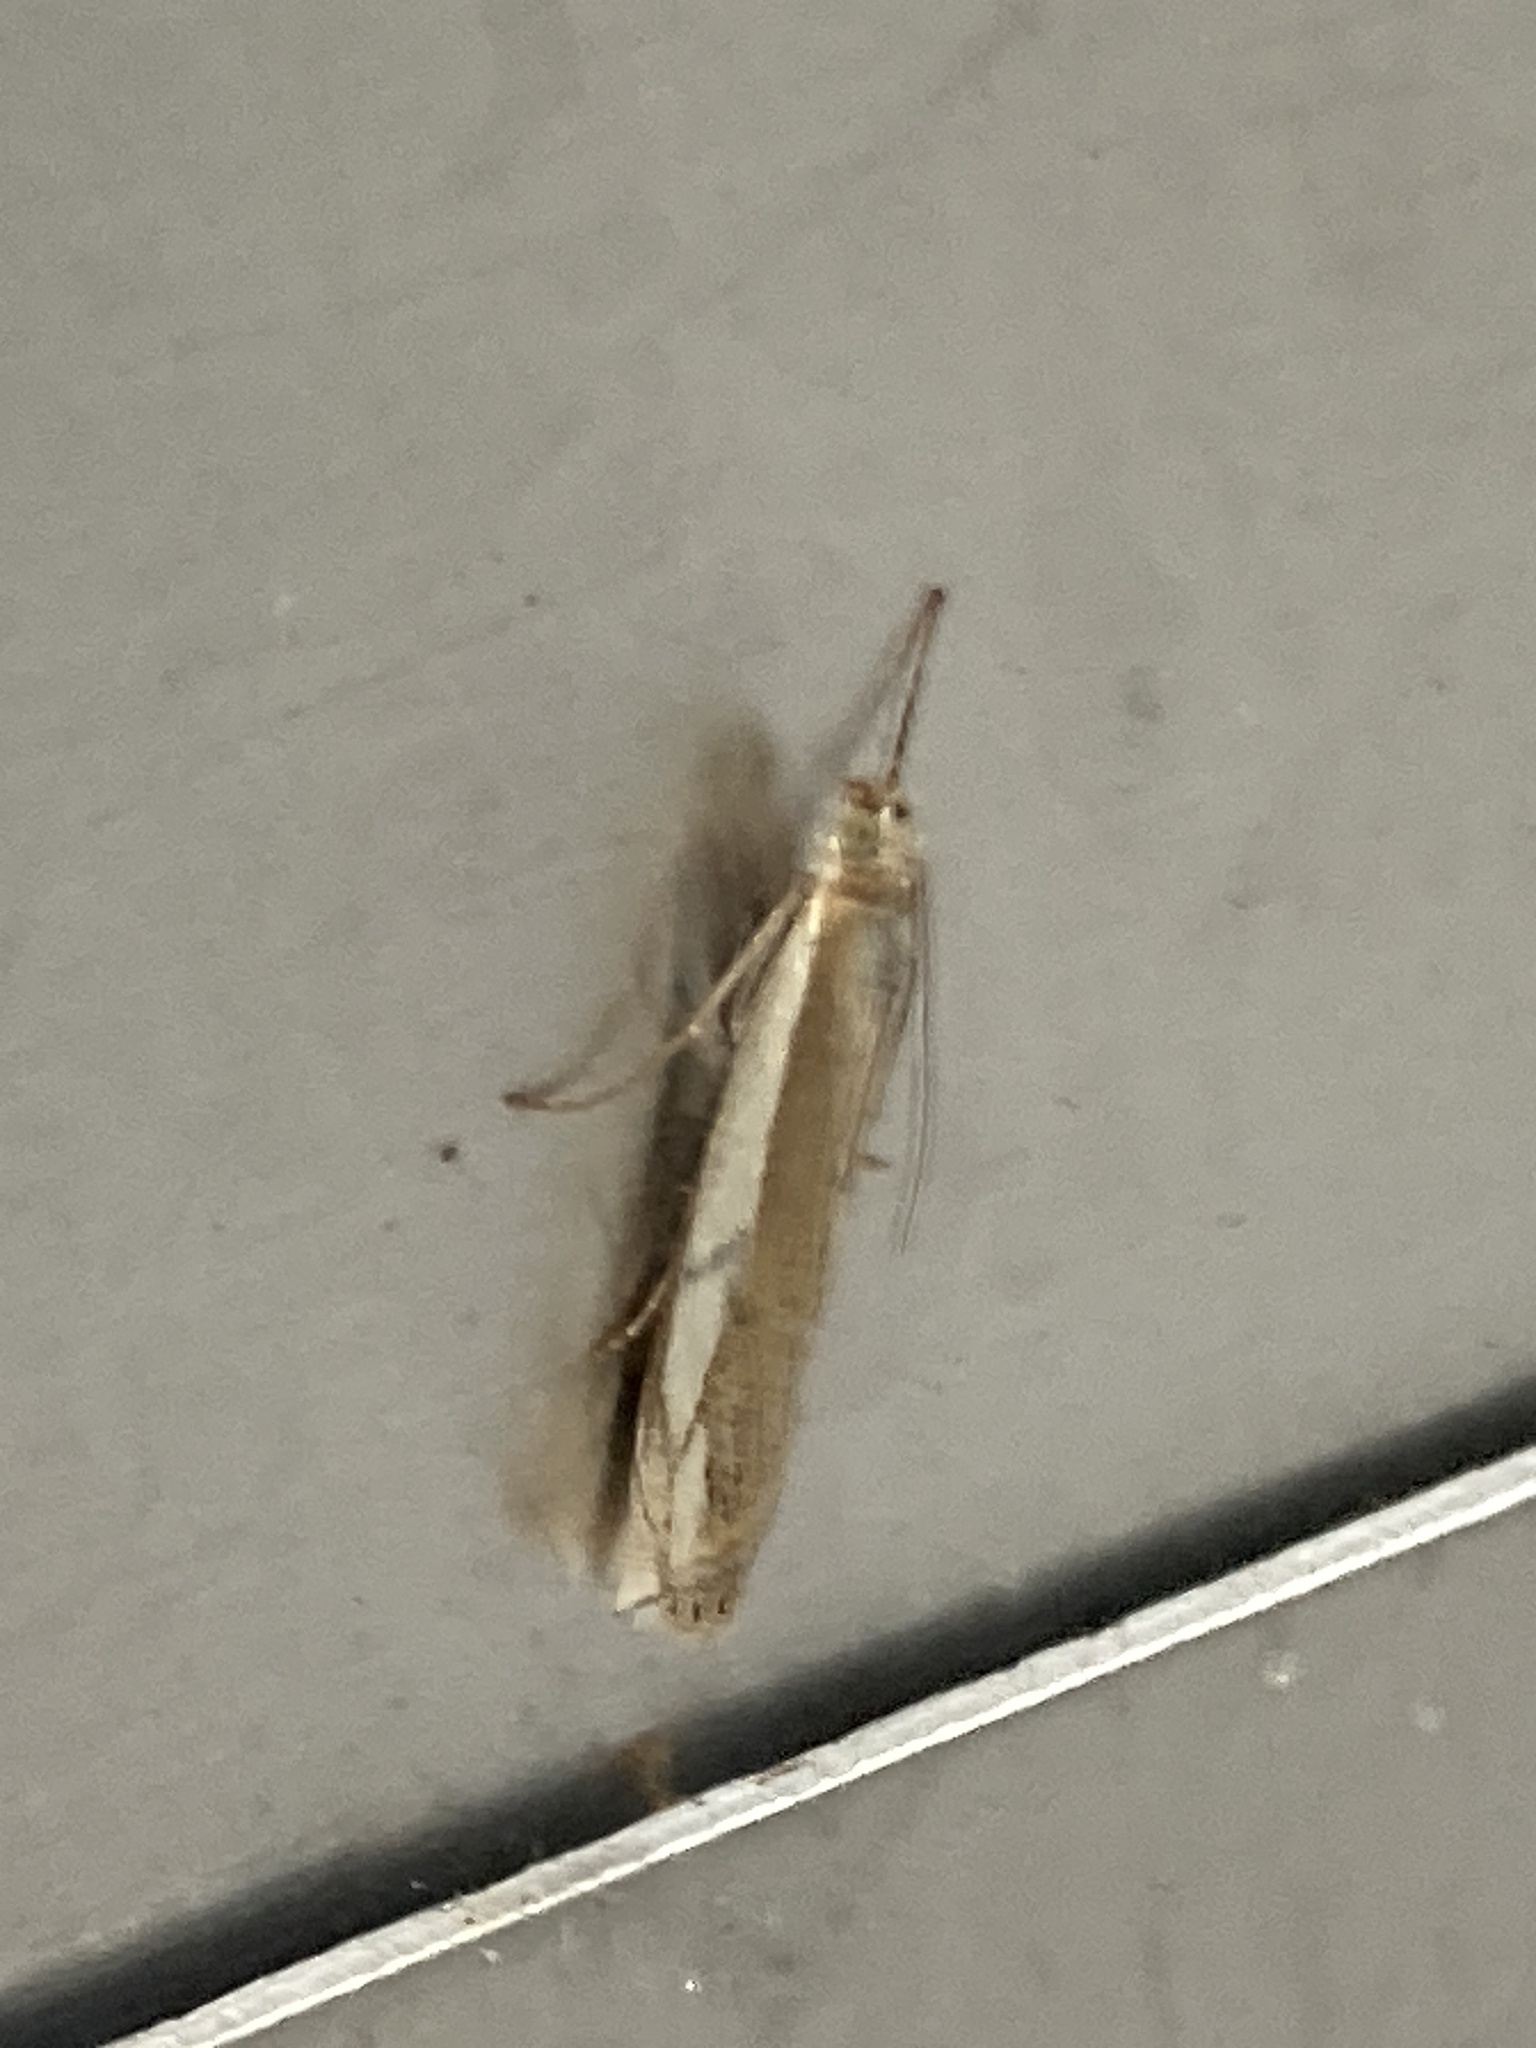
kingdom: Animalia
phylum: Arthropoda
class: Insecta
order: Lepidoptera
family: Crambidae
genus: Crambus
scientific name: Crambus pascuella
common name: Inlaid grass-veneer
